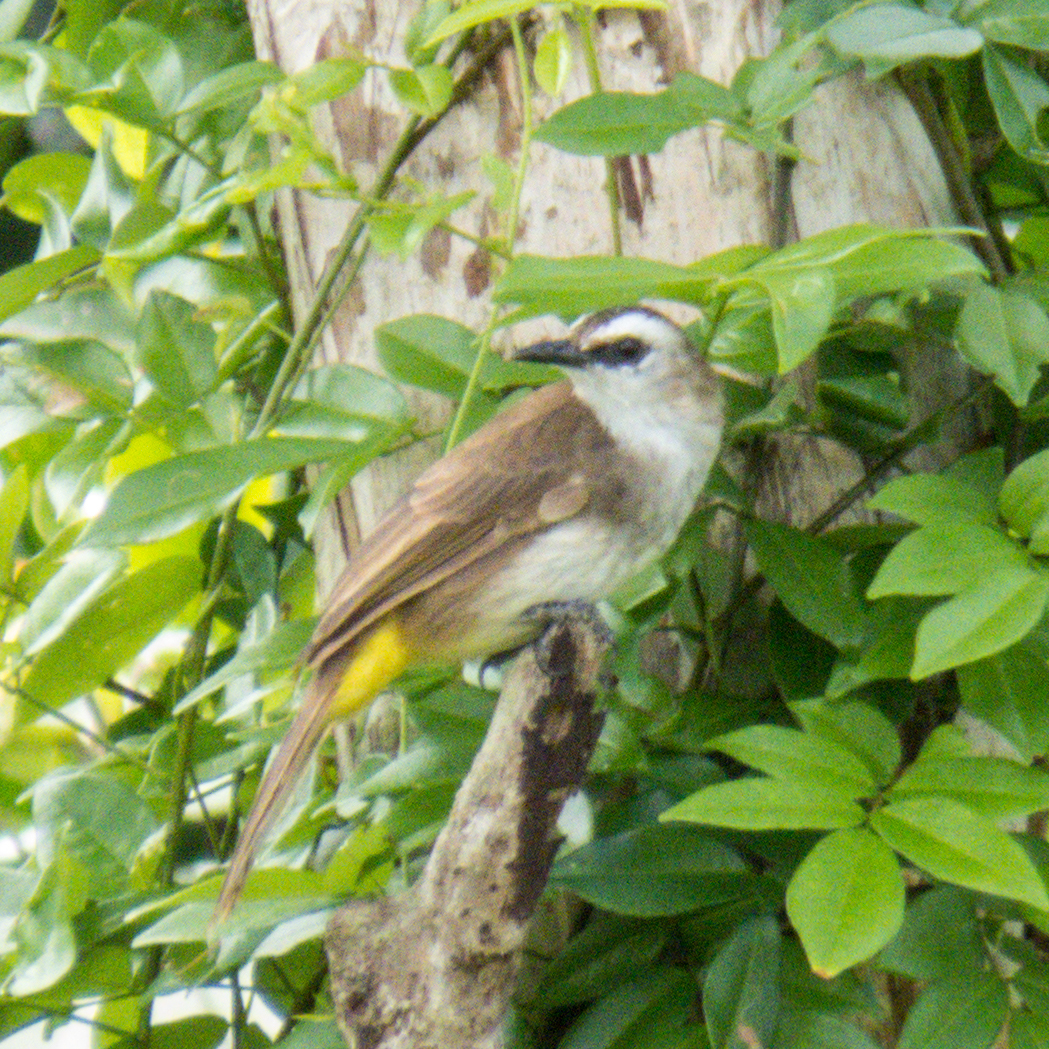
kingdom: Animalia
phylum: Chordata
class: Aves
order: Passeriformes
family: Pycnonotidae
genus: Pycnonotus
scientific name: Pycnonotus goiavier
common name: Yellow-vented bulbul
